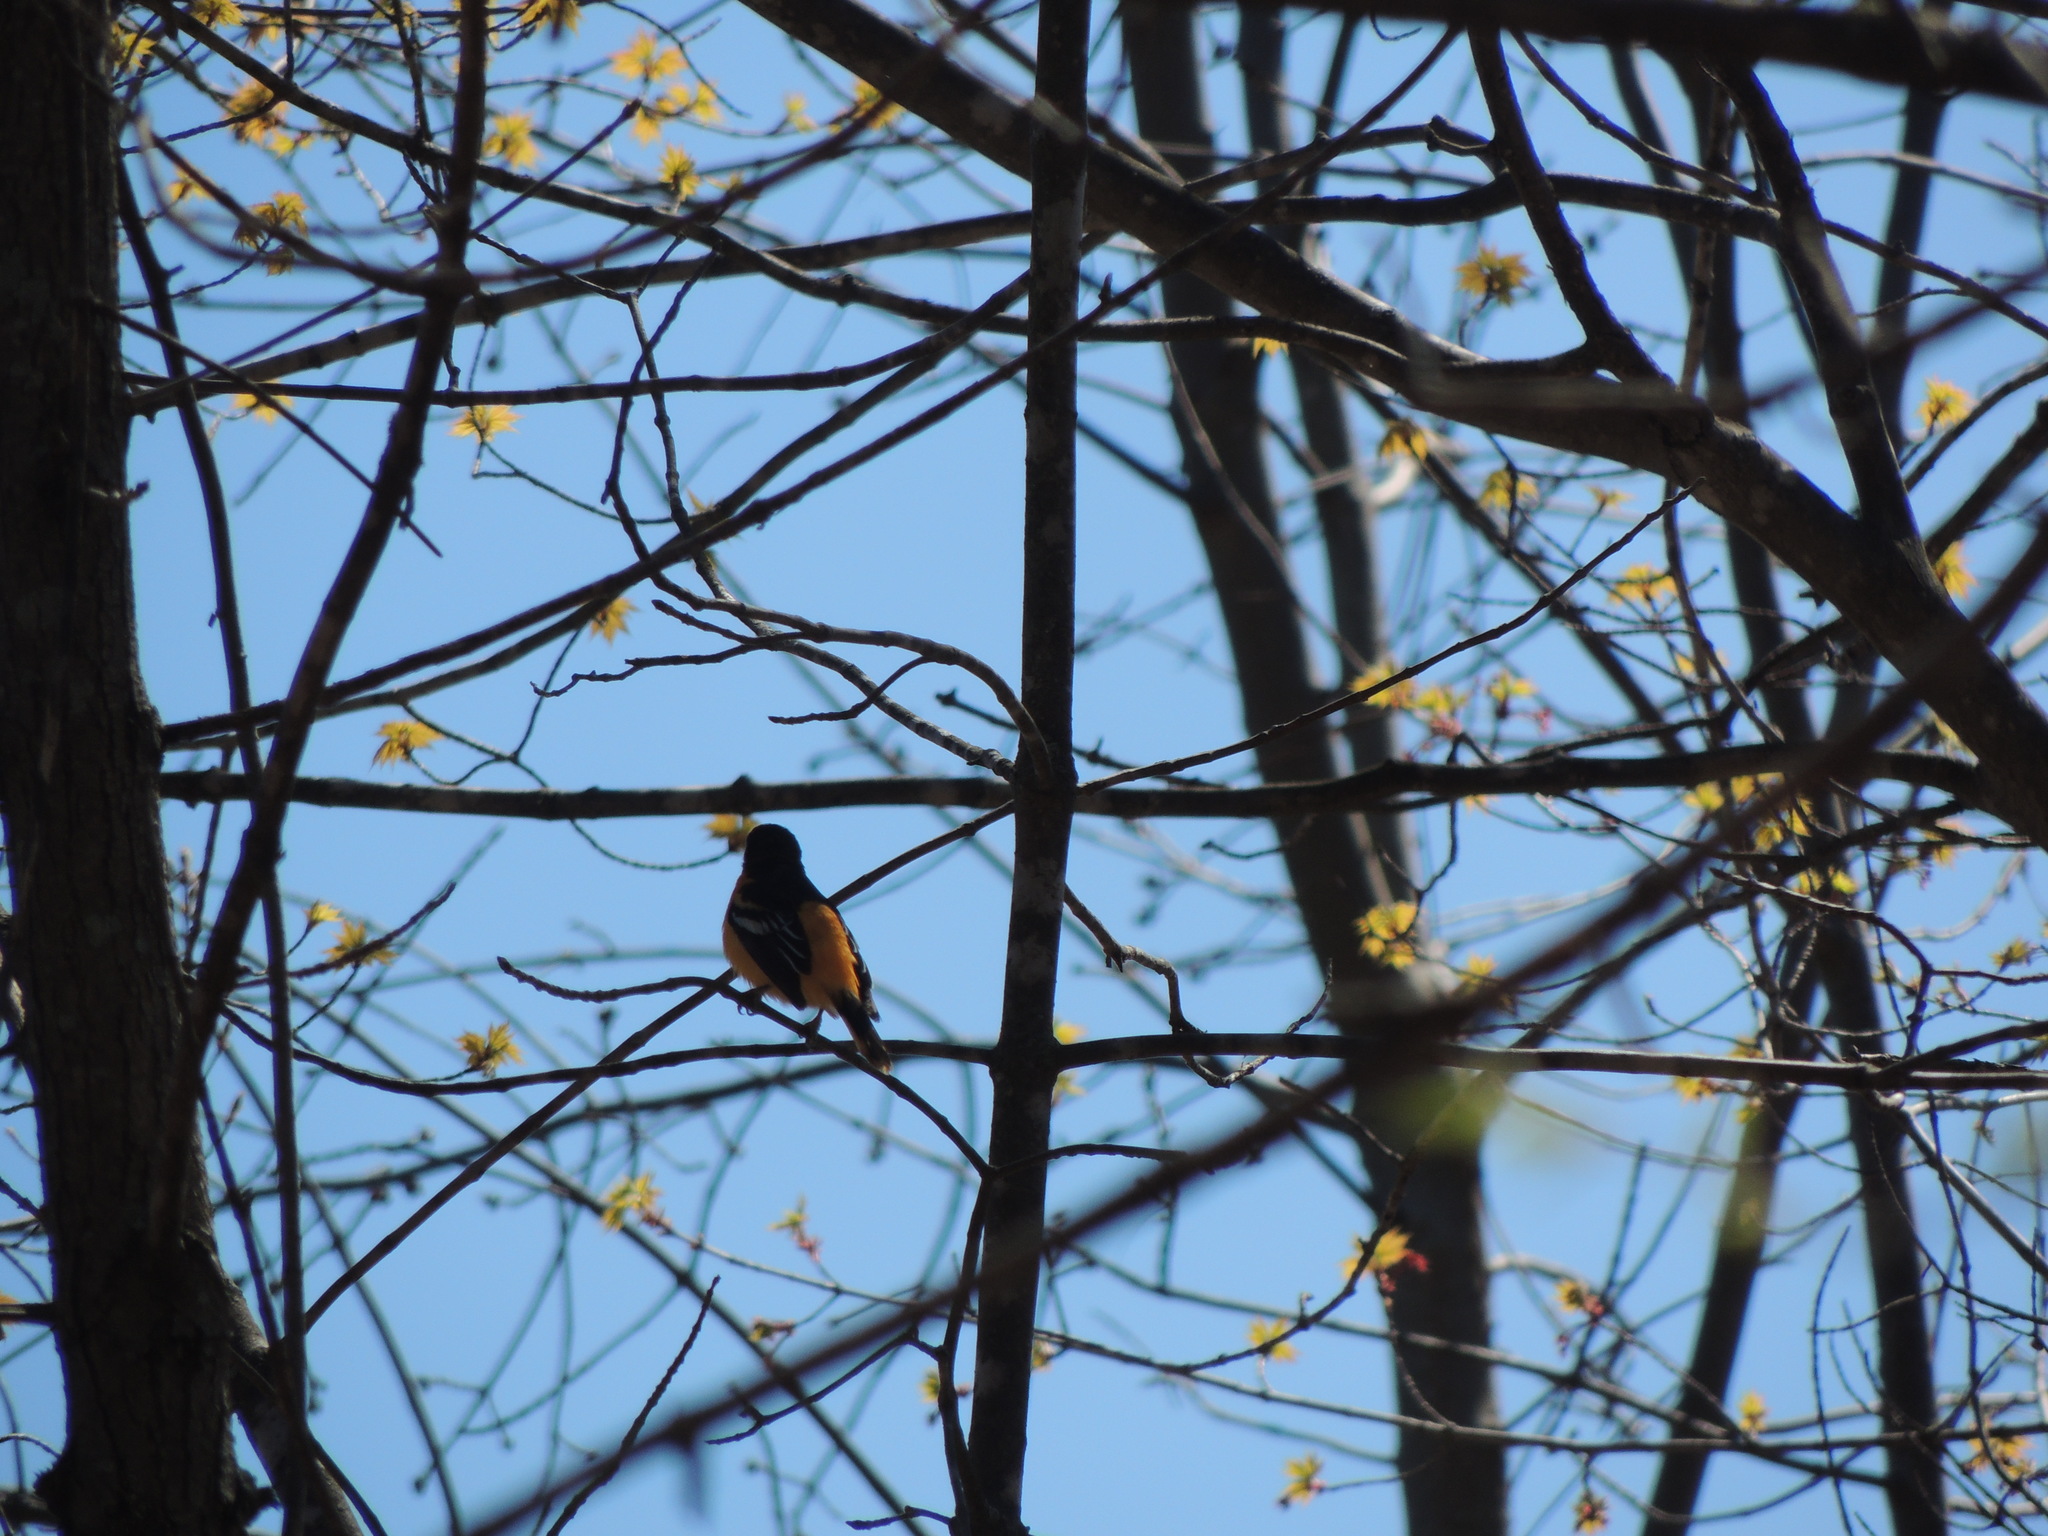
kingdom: Animalia
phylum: Chordata
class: Aves
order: Passeriformes
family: Icteridae
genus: Icterus
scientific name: Icterus galbula
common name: Baltimore oriole
